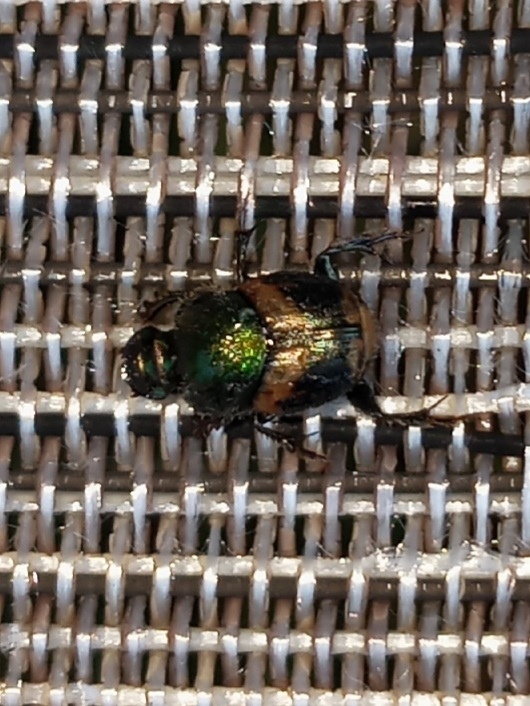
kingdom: Animalia
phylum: Arthropoda
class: Insecta
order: Coleoptera
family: Scarabaeidae
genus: Onthophagus
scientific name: Onthophagus concinnus
